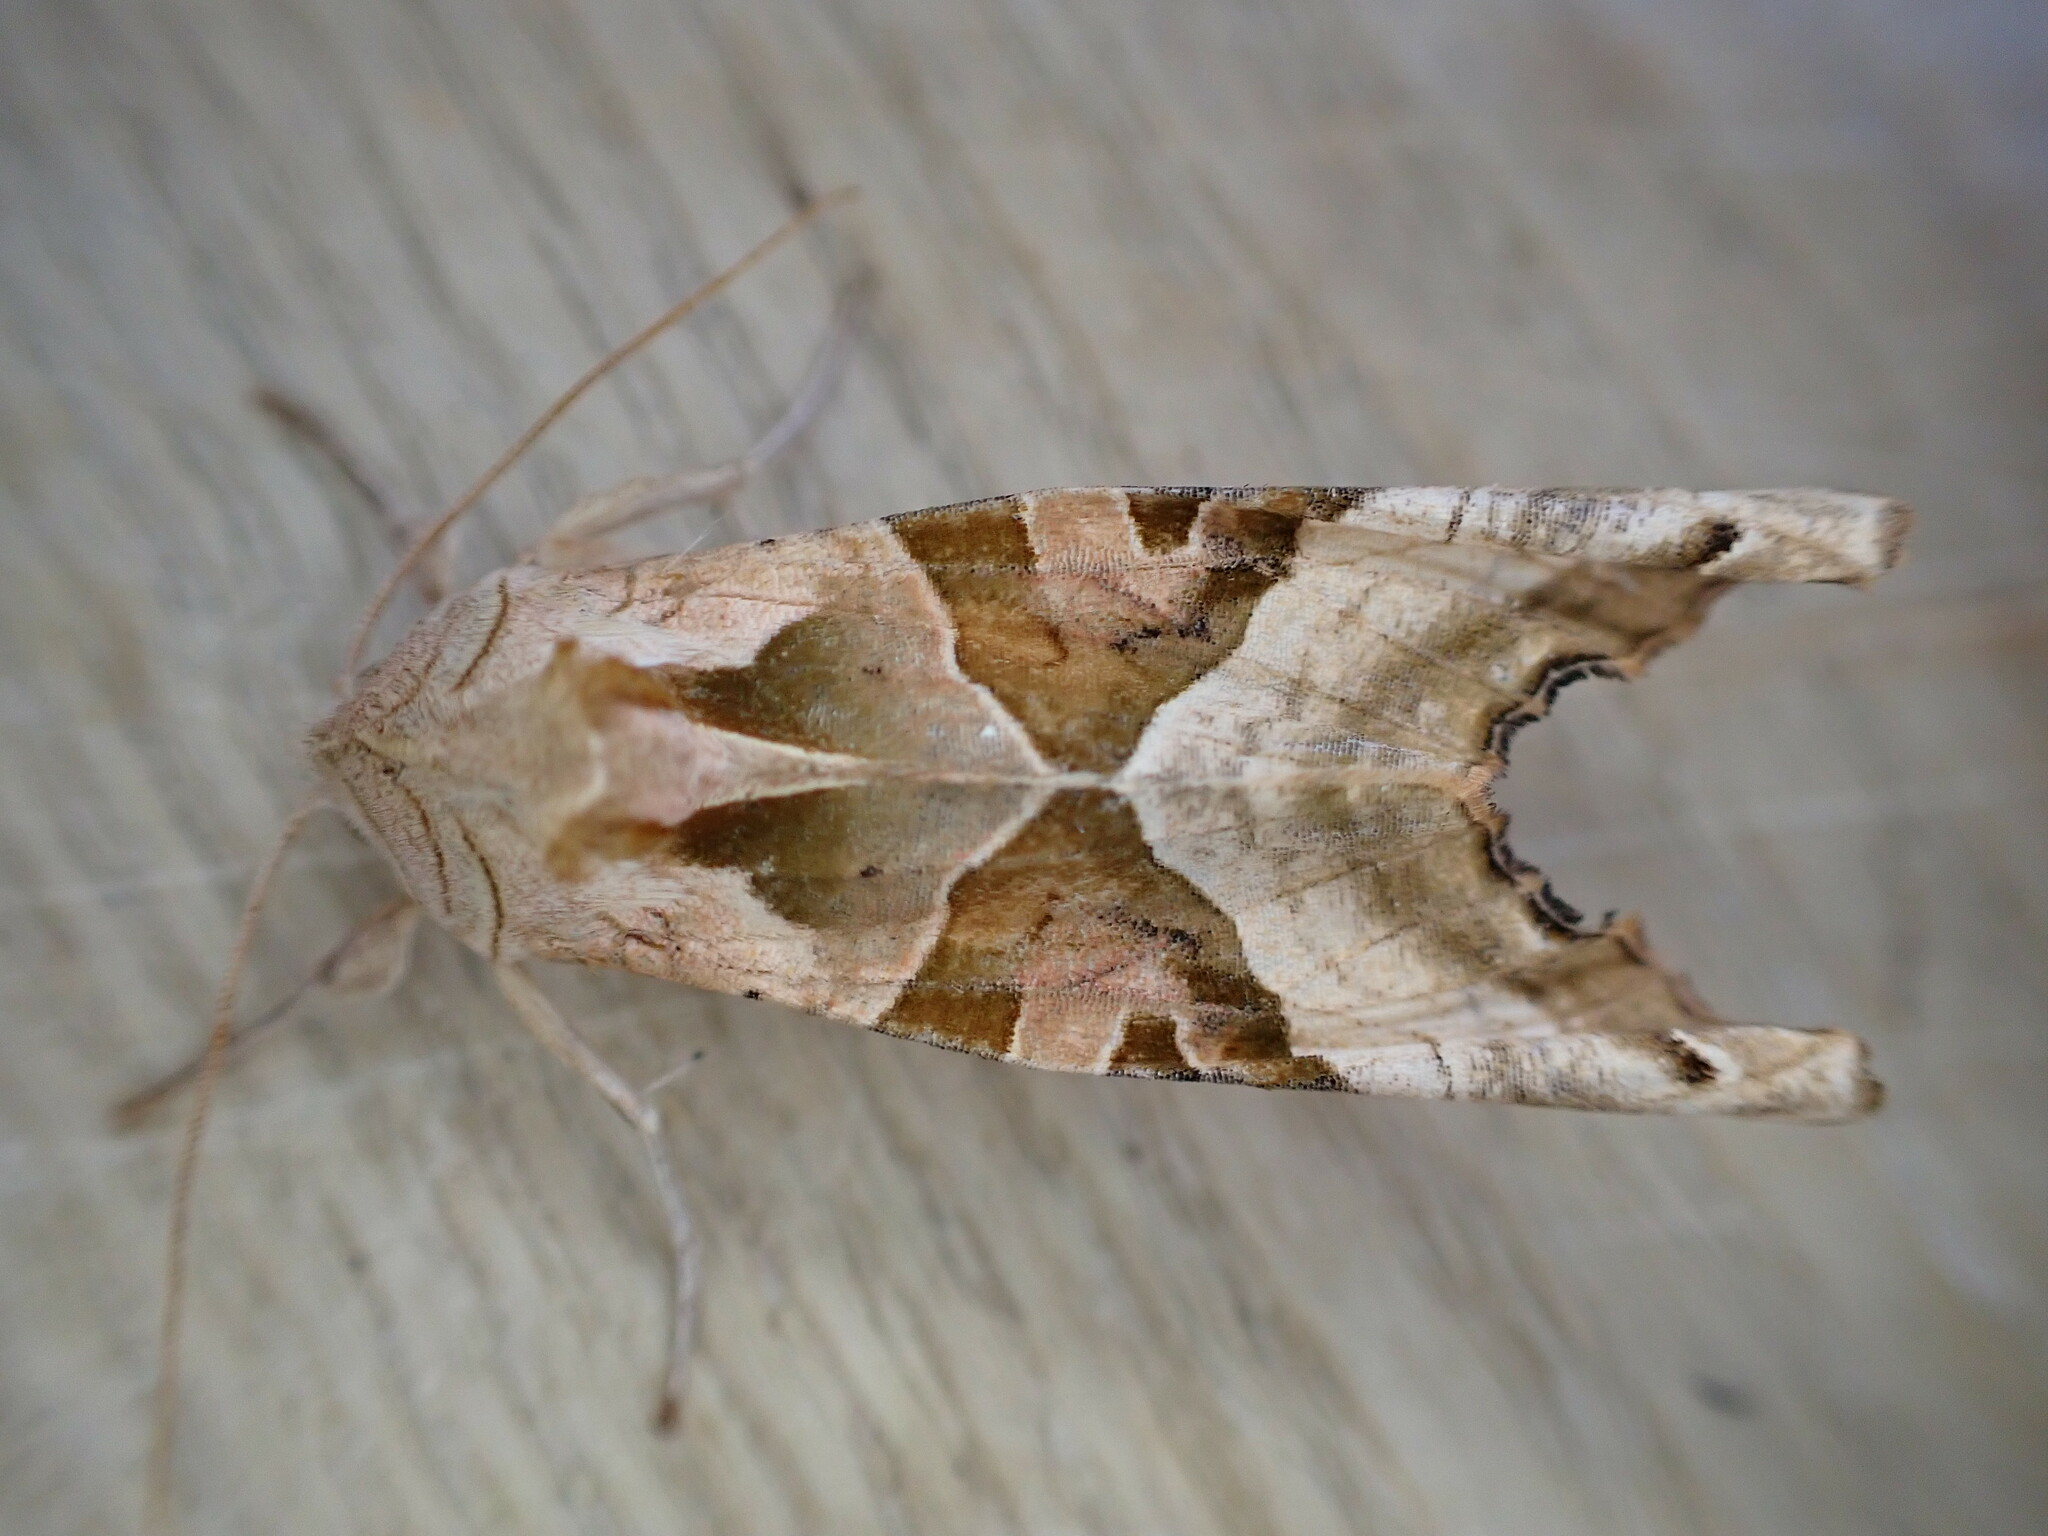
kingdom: Animalia
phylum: Arthropoda
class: Insecta
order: Lepidoptera
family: Noctuidae
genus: Phlogophora
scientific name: Phlogophora meticulosa
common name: Angle shades
